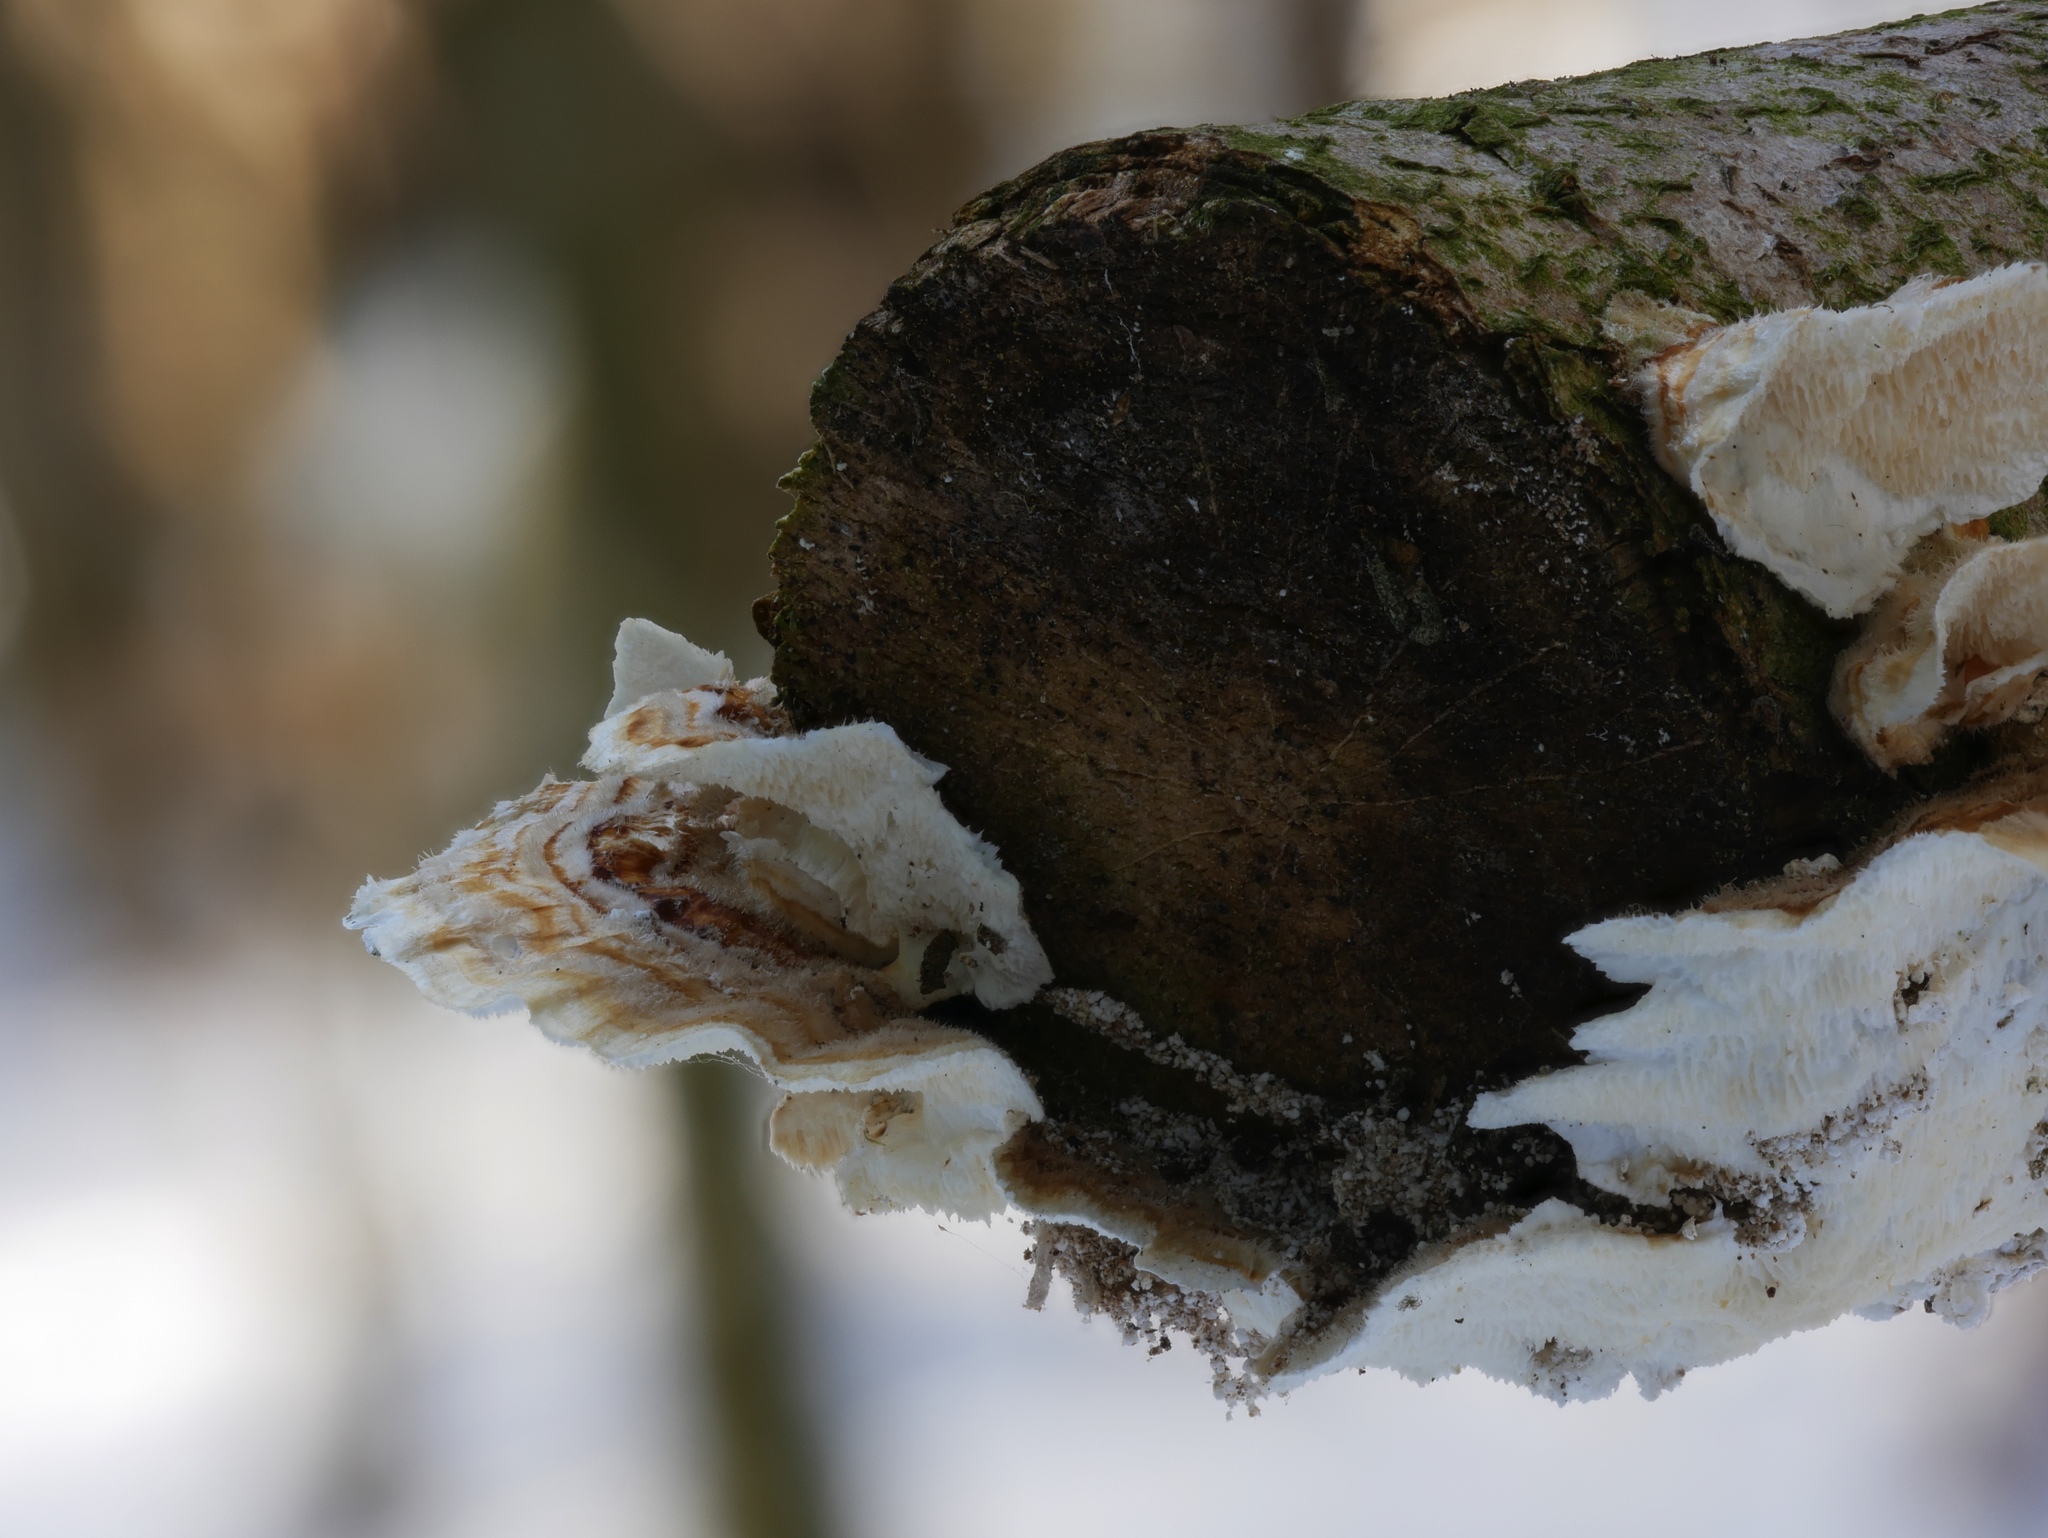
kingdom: Fungi
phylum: Basidiomycota
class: Agaricomycetes
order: Polyporales
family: Polyporaceae
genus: Trametes
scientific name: Trametes ochracea
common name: Ochre bracket
